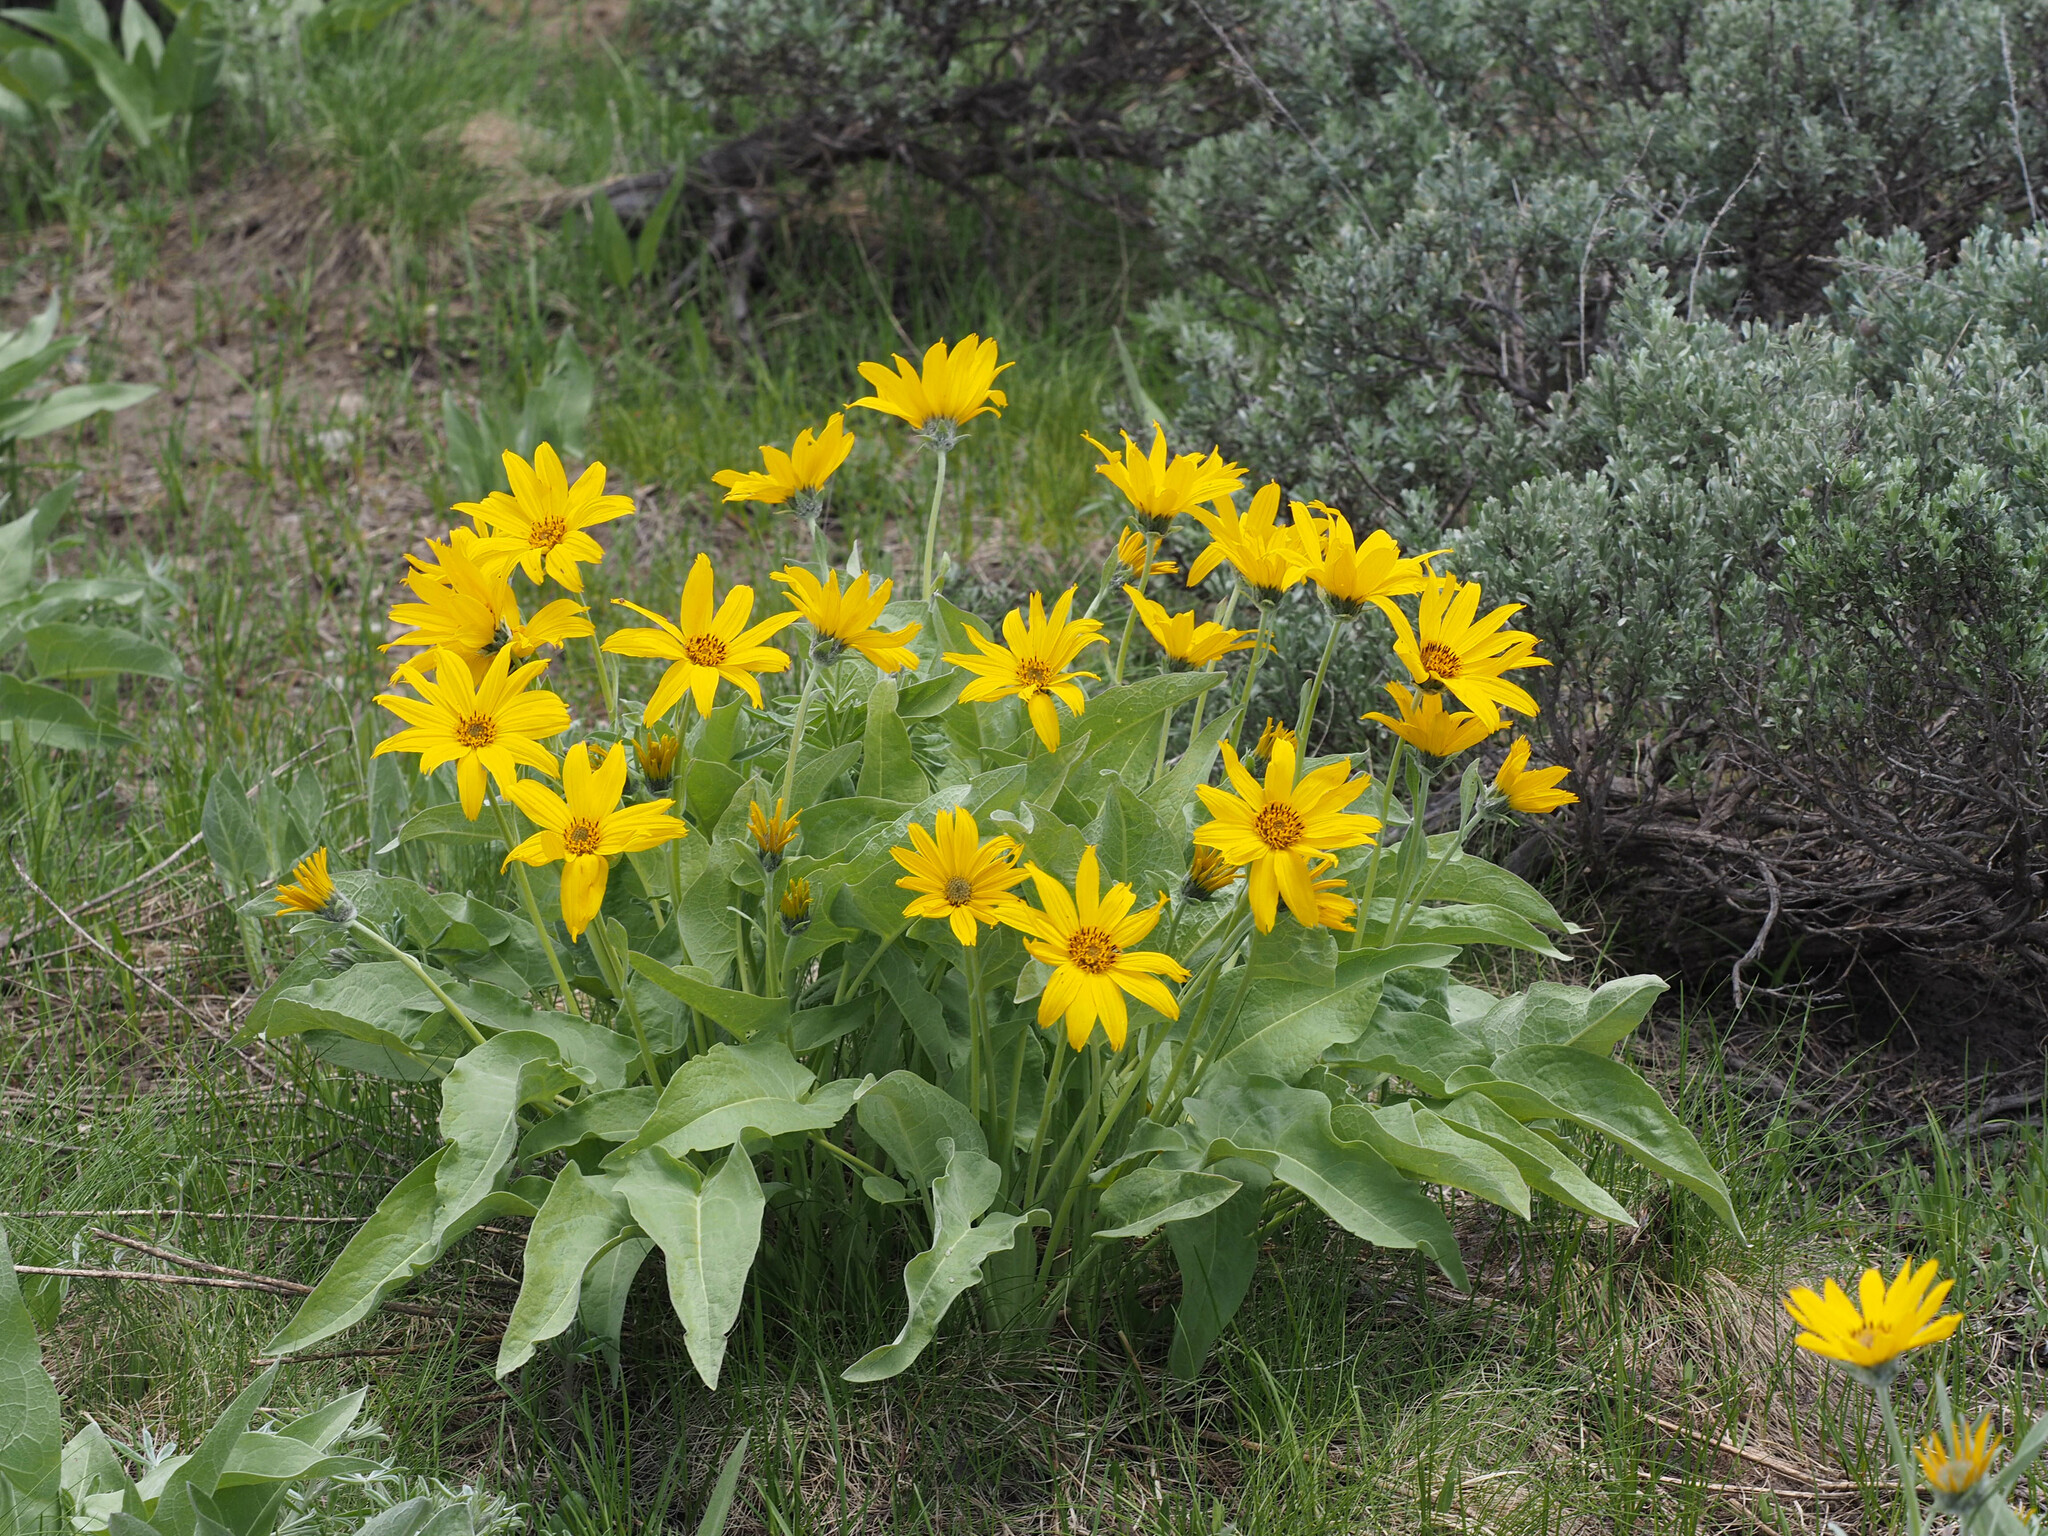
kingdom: Plantae
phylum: Tracheophyta
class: Magnoliopsida
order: Asterales
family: Asteraceae
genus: Wyethia
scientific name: Wyethia sagittata
